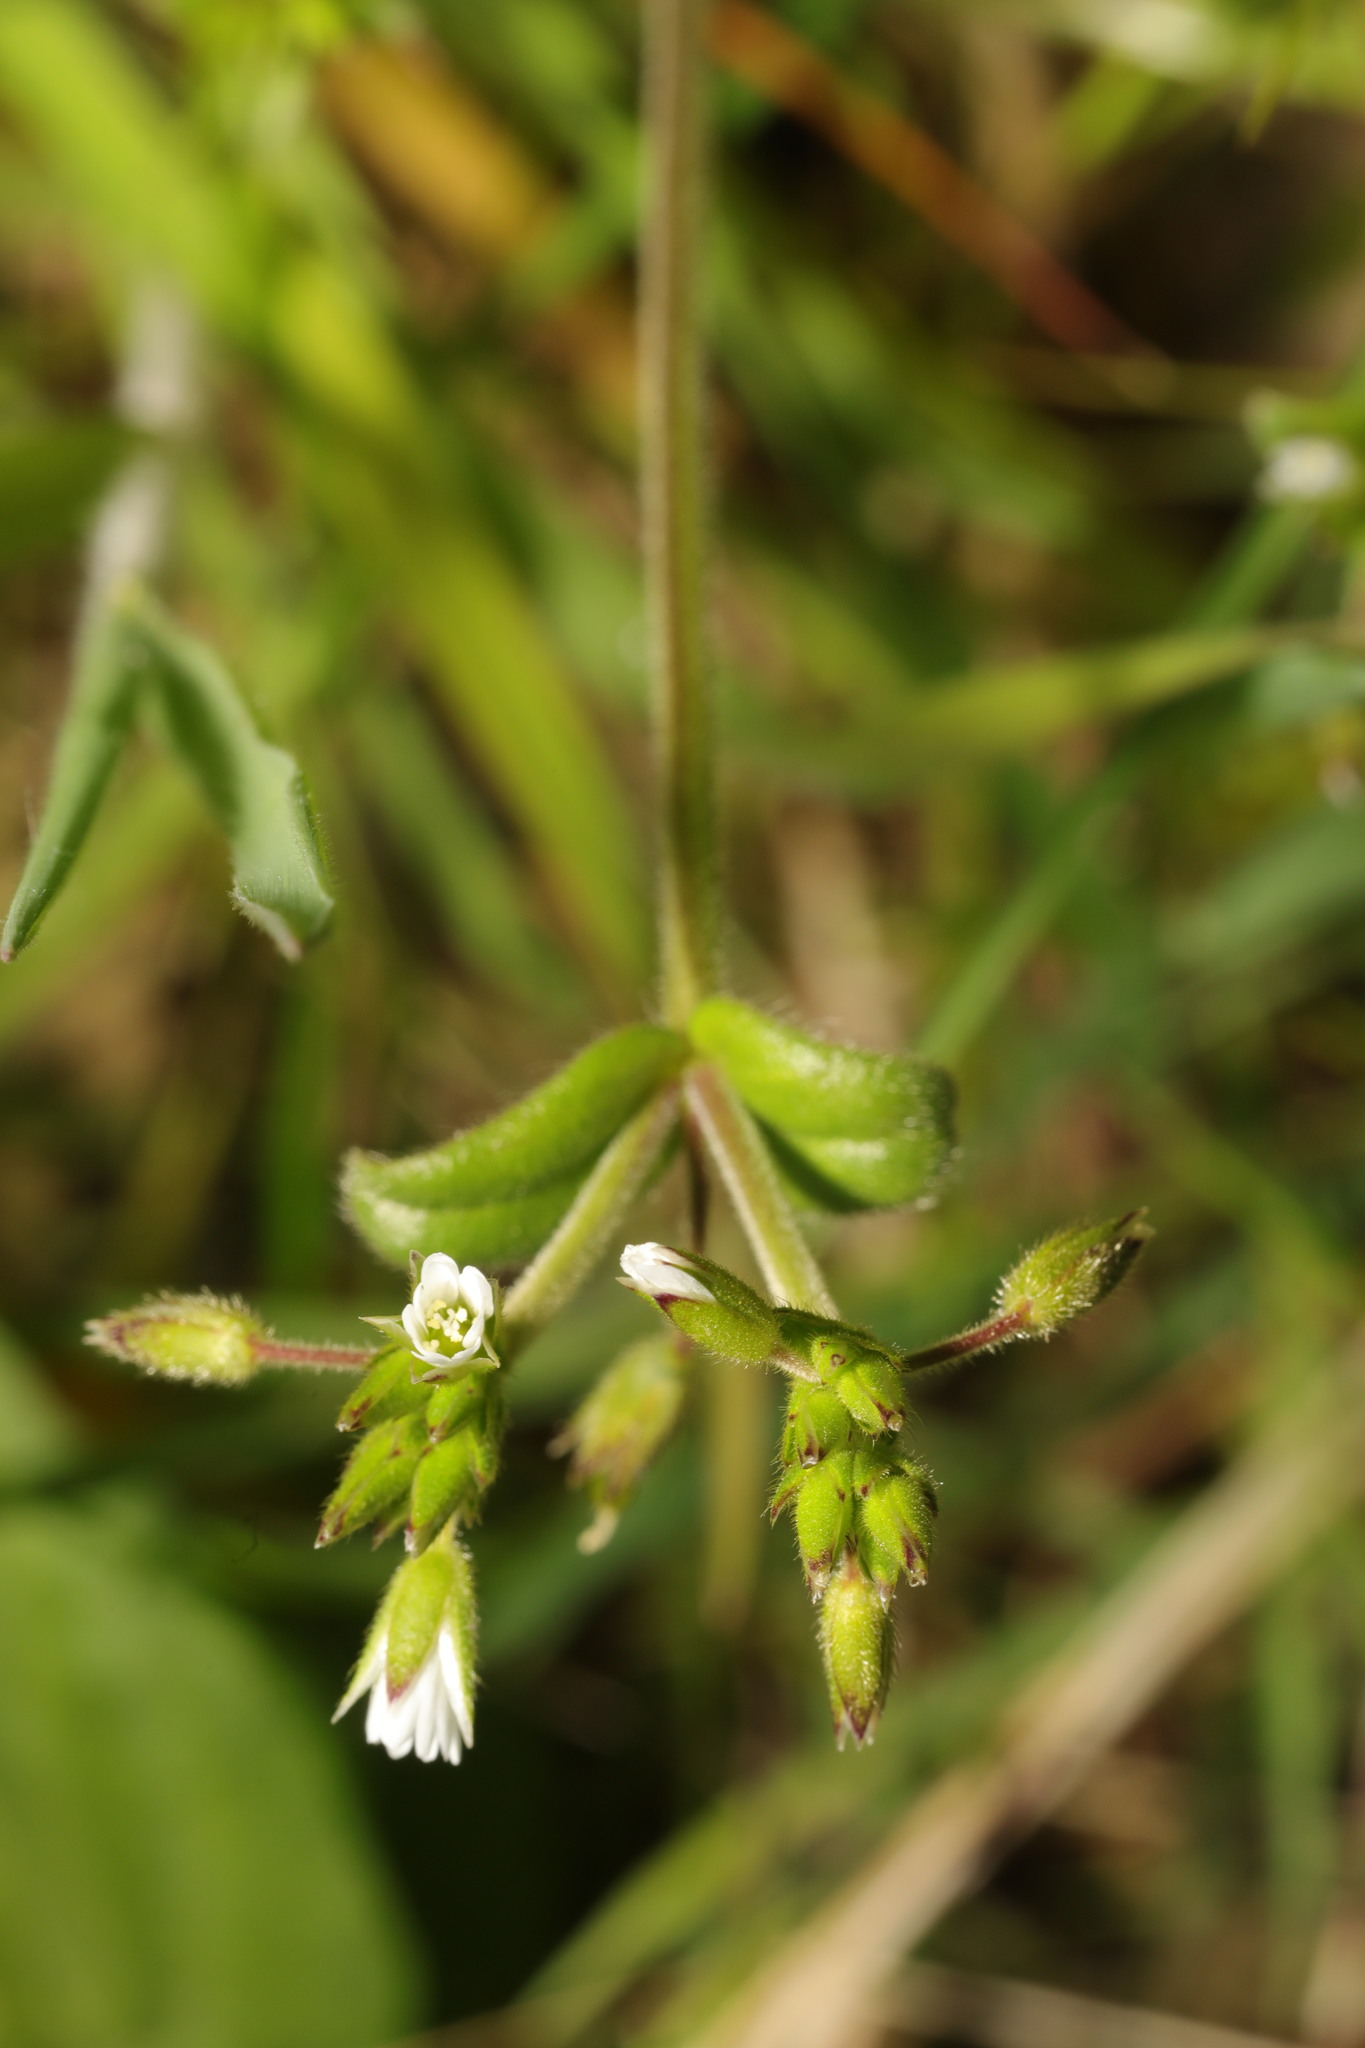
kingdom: Plantae
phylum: Tracheophyta
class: Magnoliopsida
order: Caryophyllales
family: Caryophyllaceae
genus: Cerastium
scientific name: Cerastium fontanum
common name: Common mouse-ear
